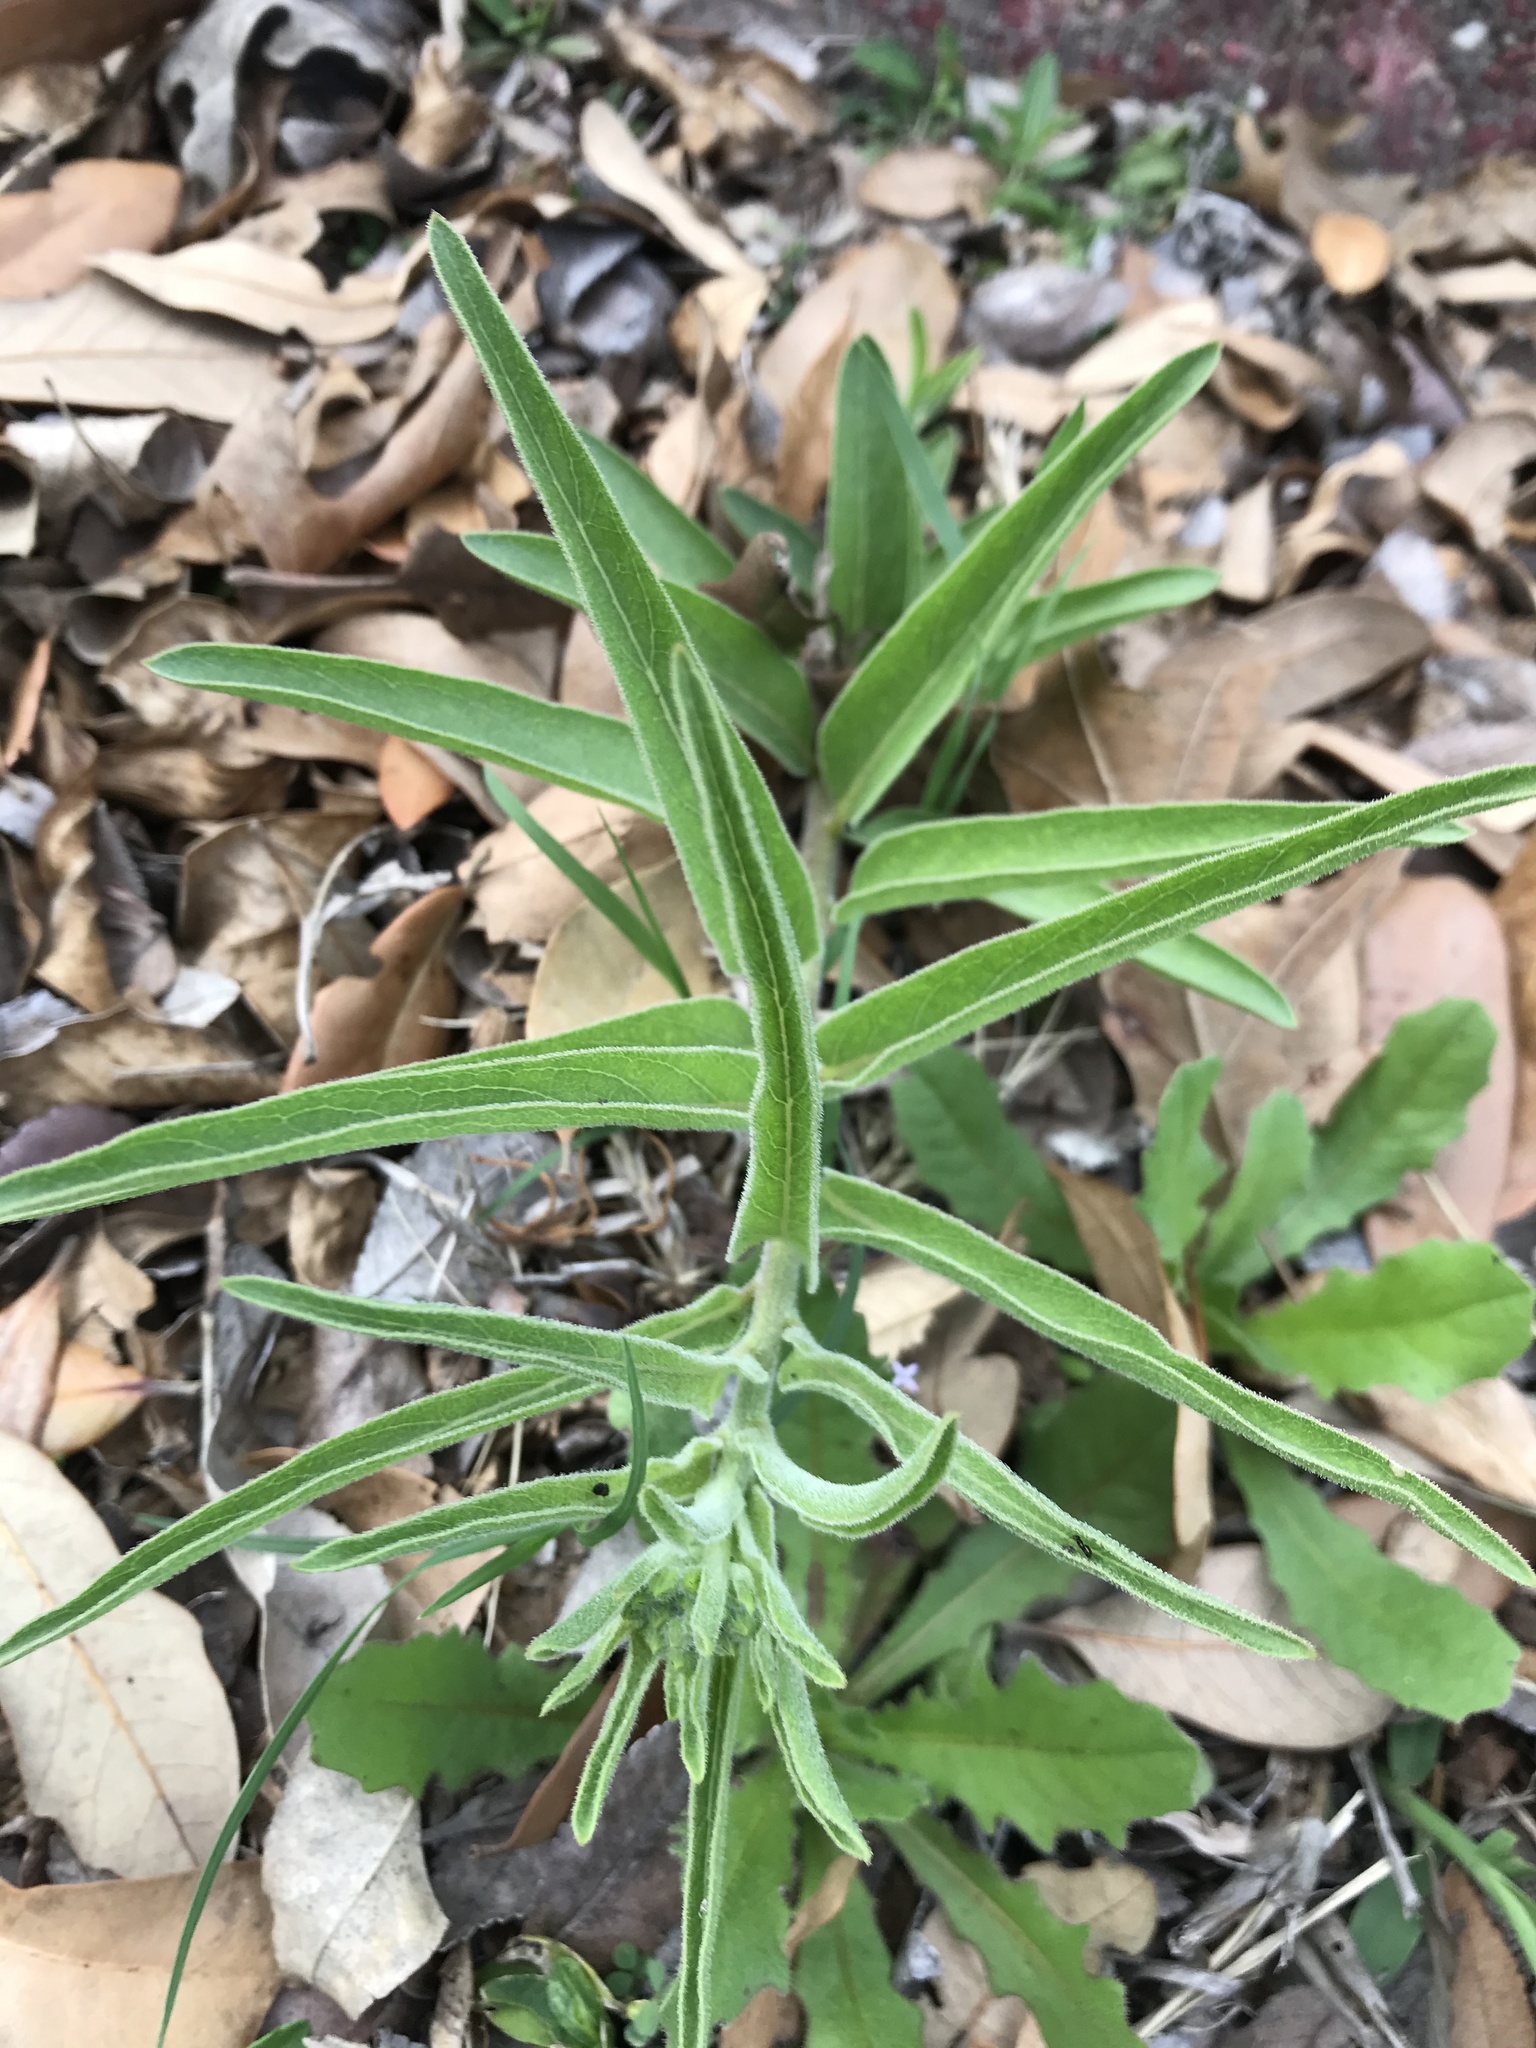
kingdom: Plantae
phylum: Tracheophyta
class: Magnoliopsida
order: Gentianales
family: Apocynaceae
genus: Asclepias
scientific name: Asclepias asperula
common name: Antelope horns
